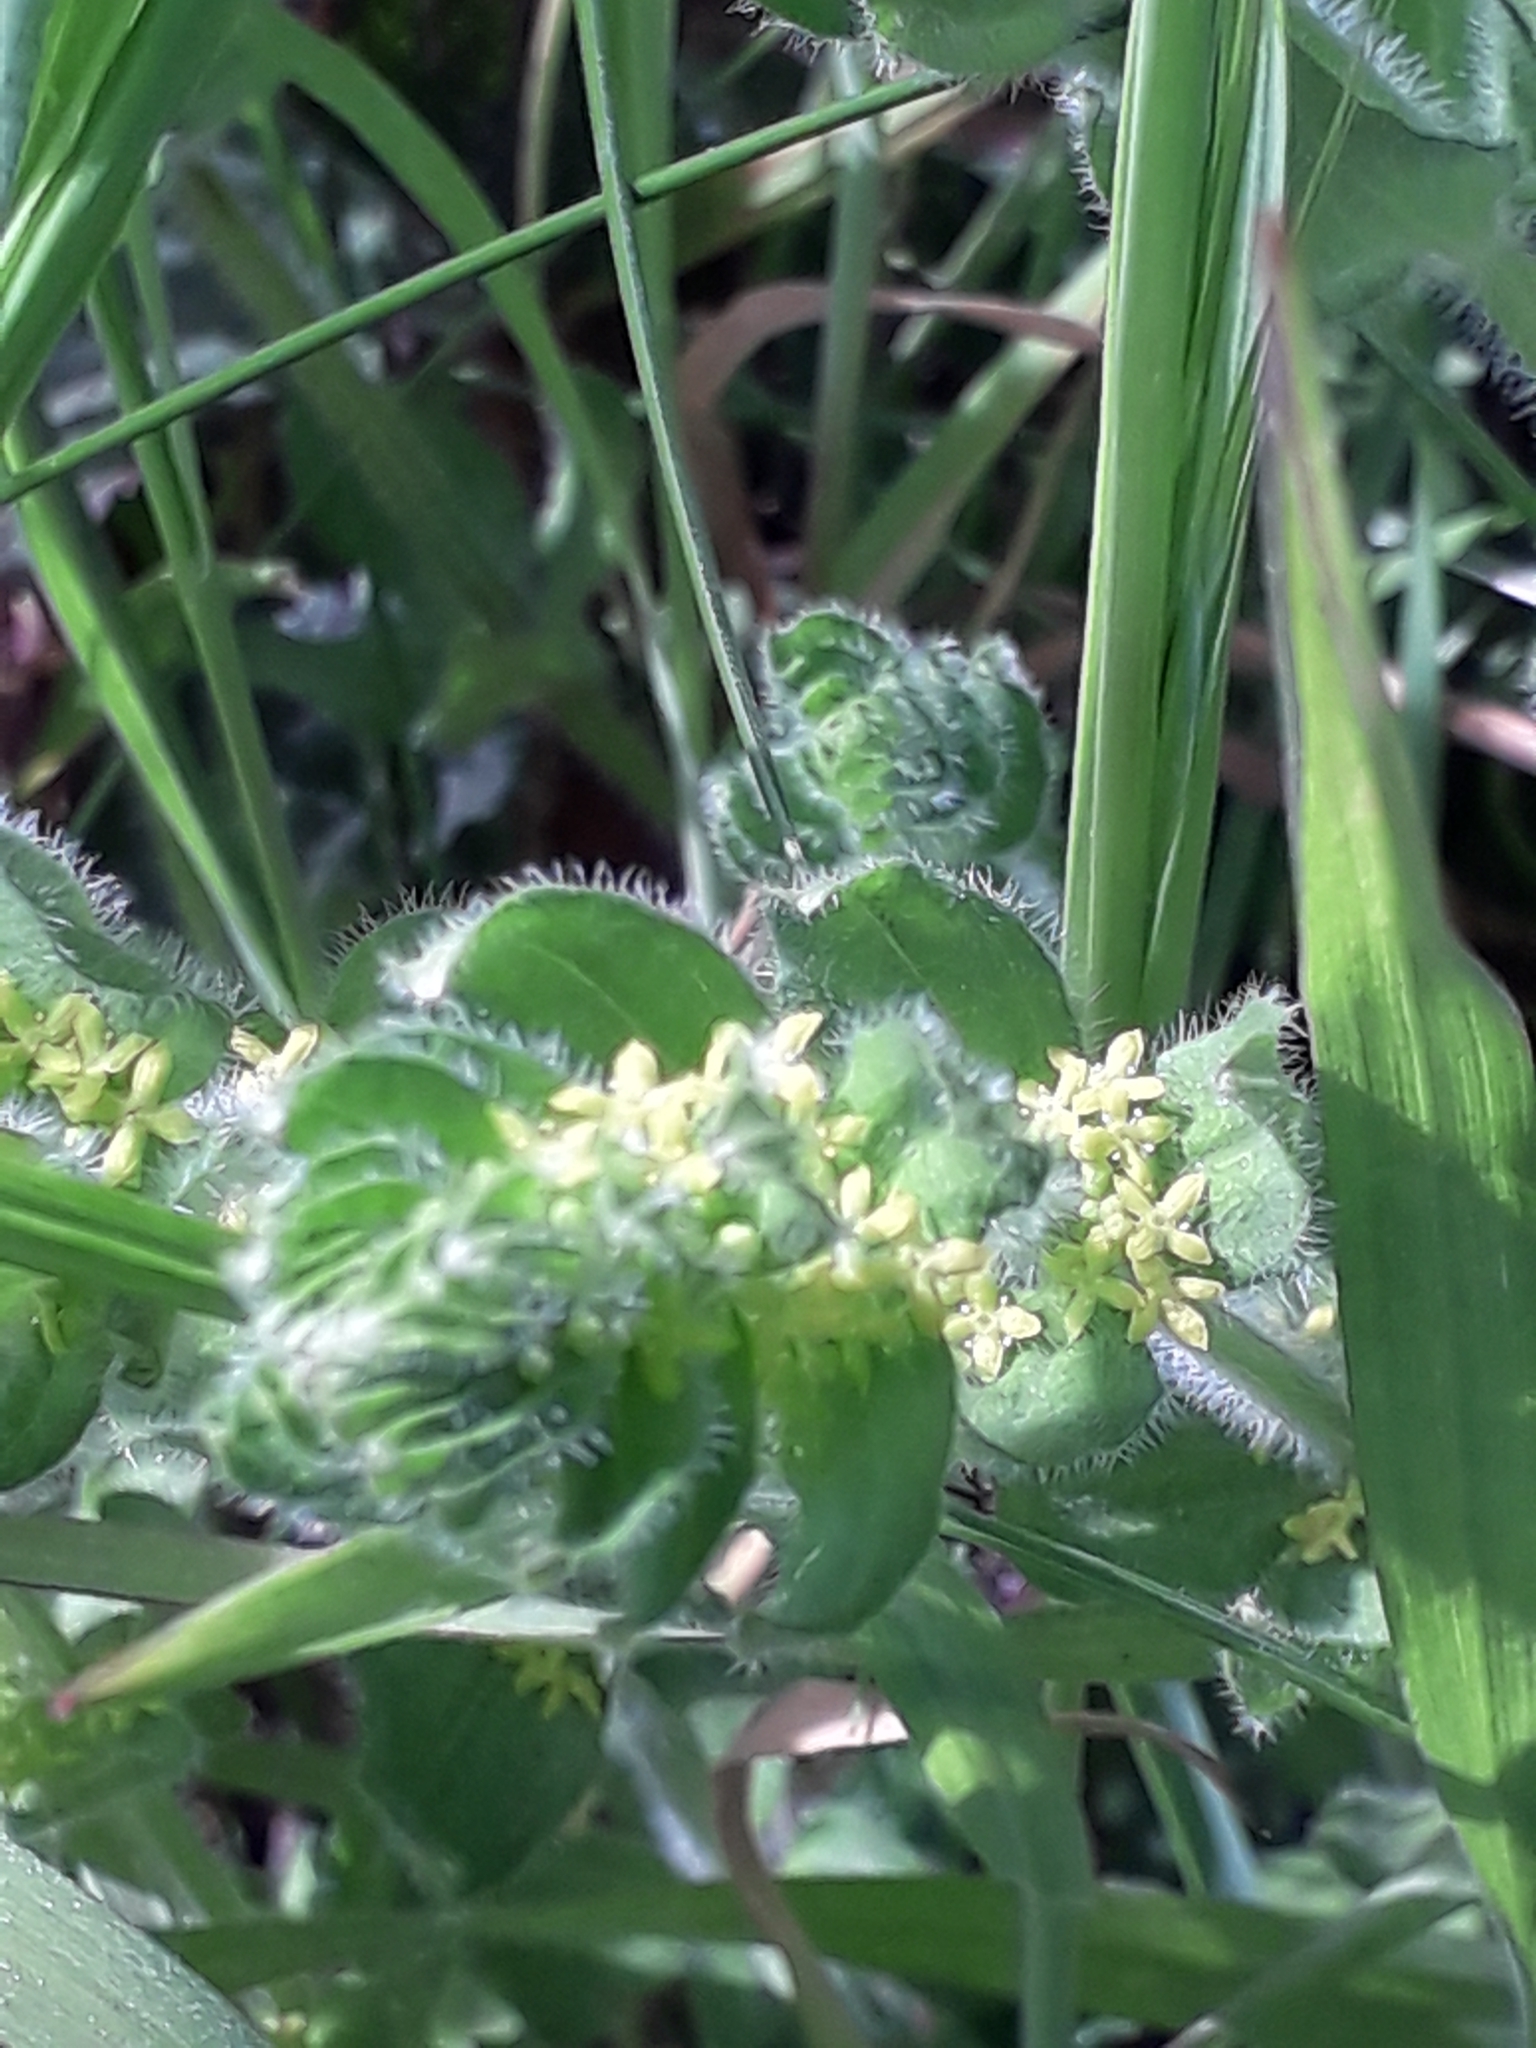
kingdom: Plantae
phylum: Tracheophyta
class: Magnoliopsida
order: Gentianales
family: Rubiaceae
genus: Cruciata
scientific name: Cruciata laevipes
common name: Crosswort
